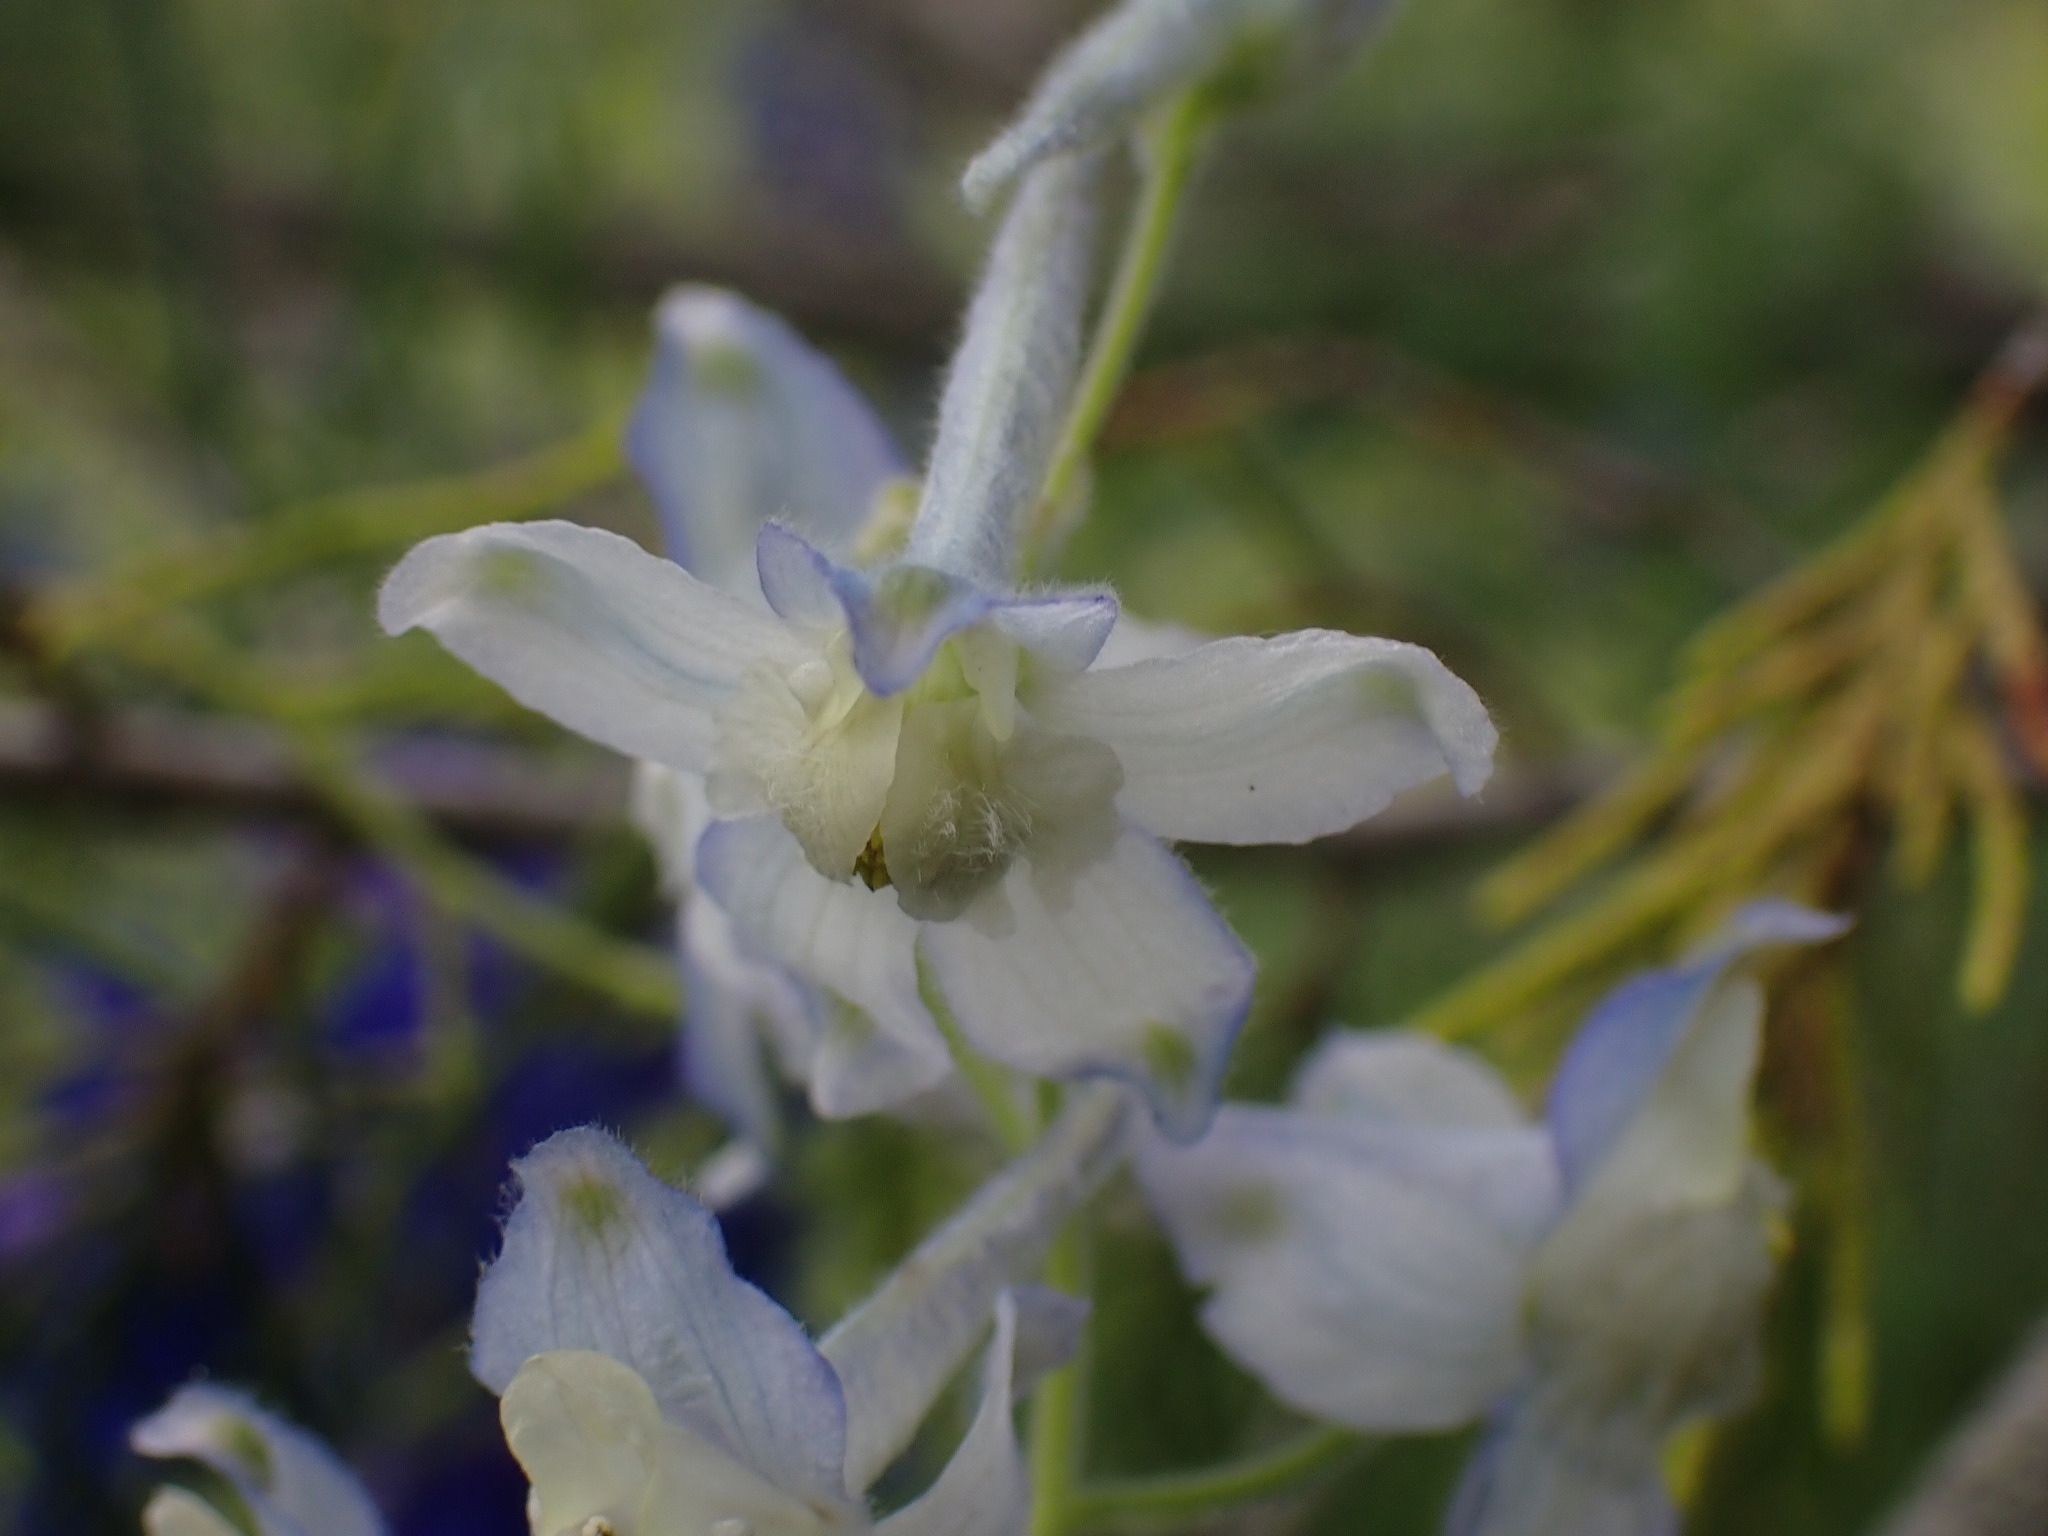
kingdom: Plantae
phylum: Tracheophyta
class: Magnoliopsida
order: Ranunculales
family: Ranunculaceae
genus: Delphinium
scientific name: Delphinium nuttallianum
